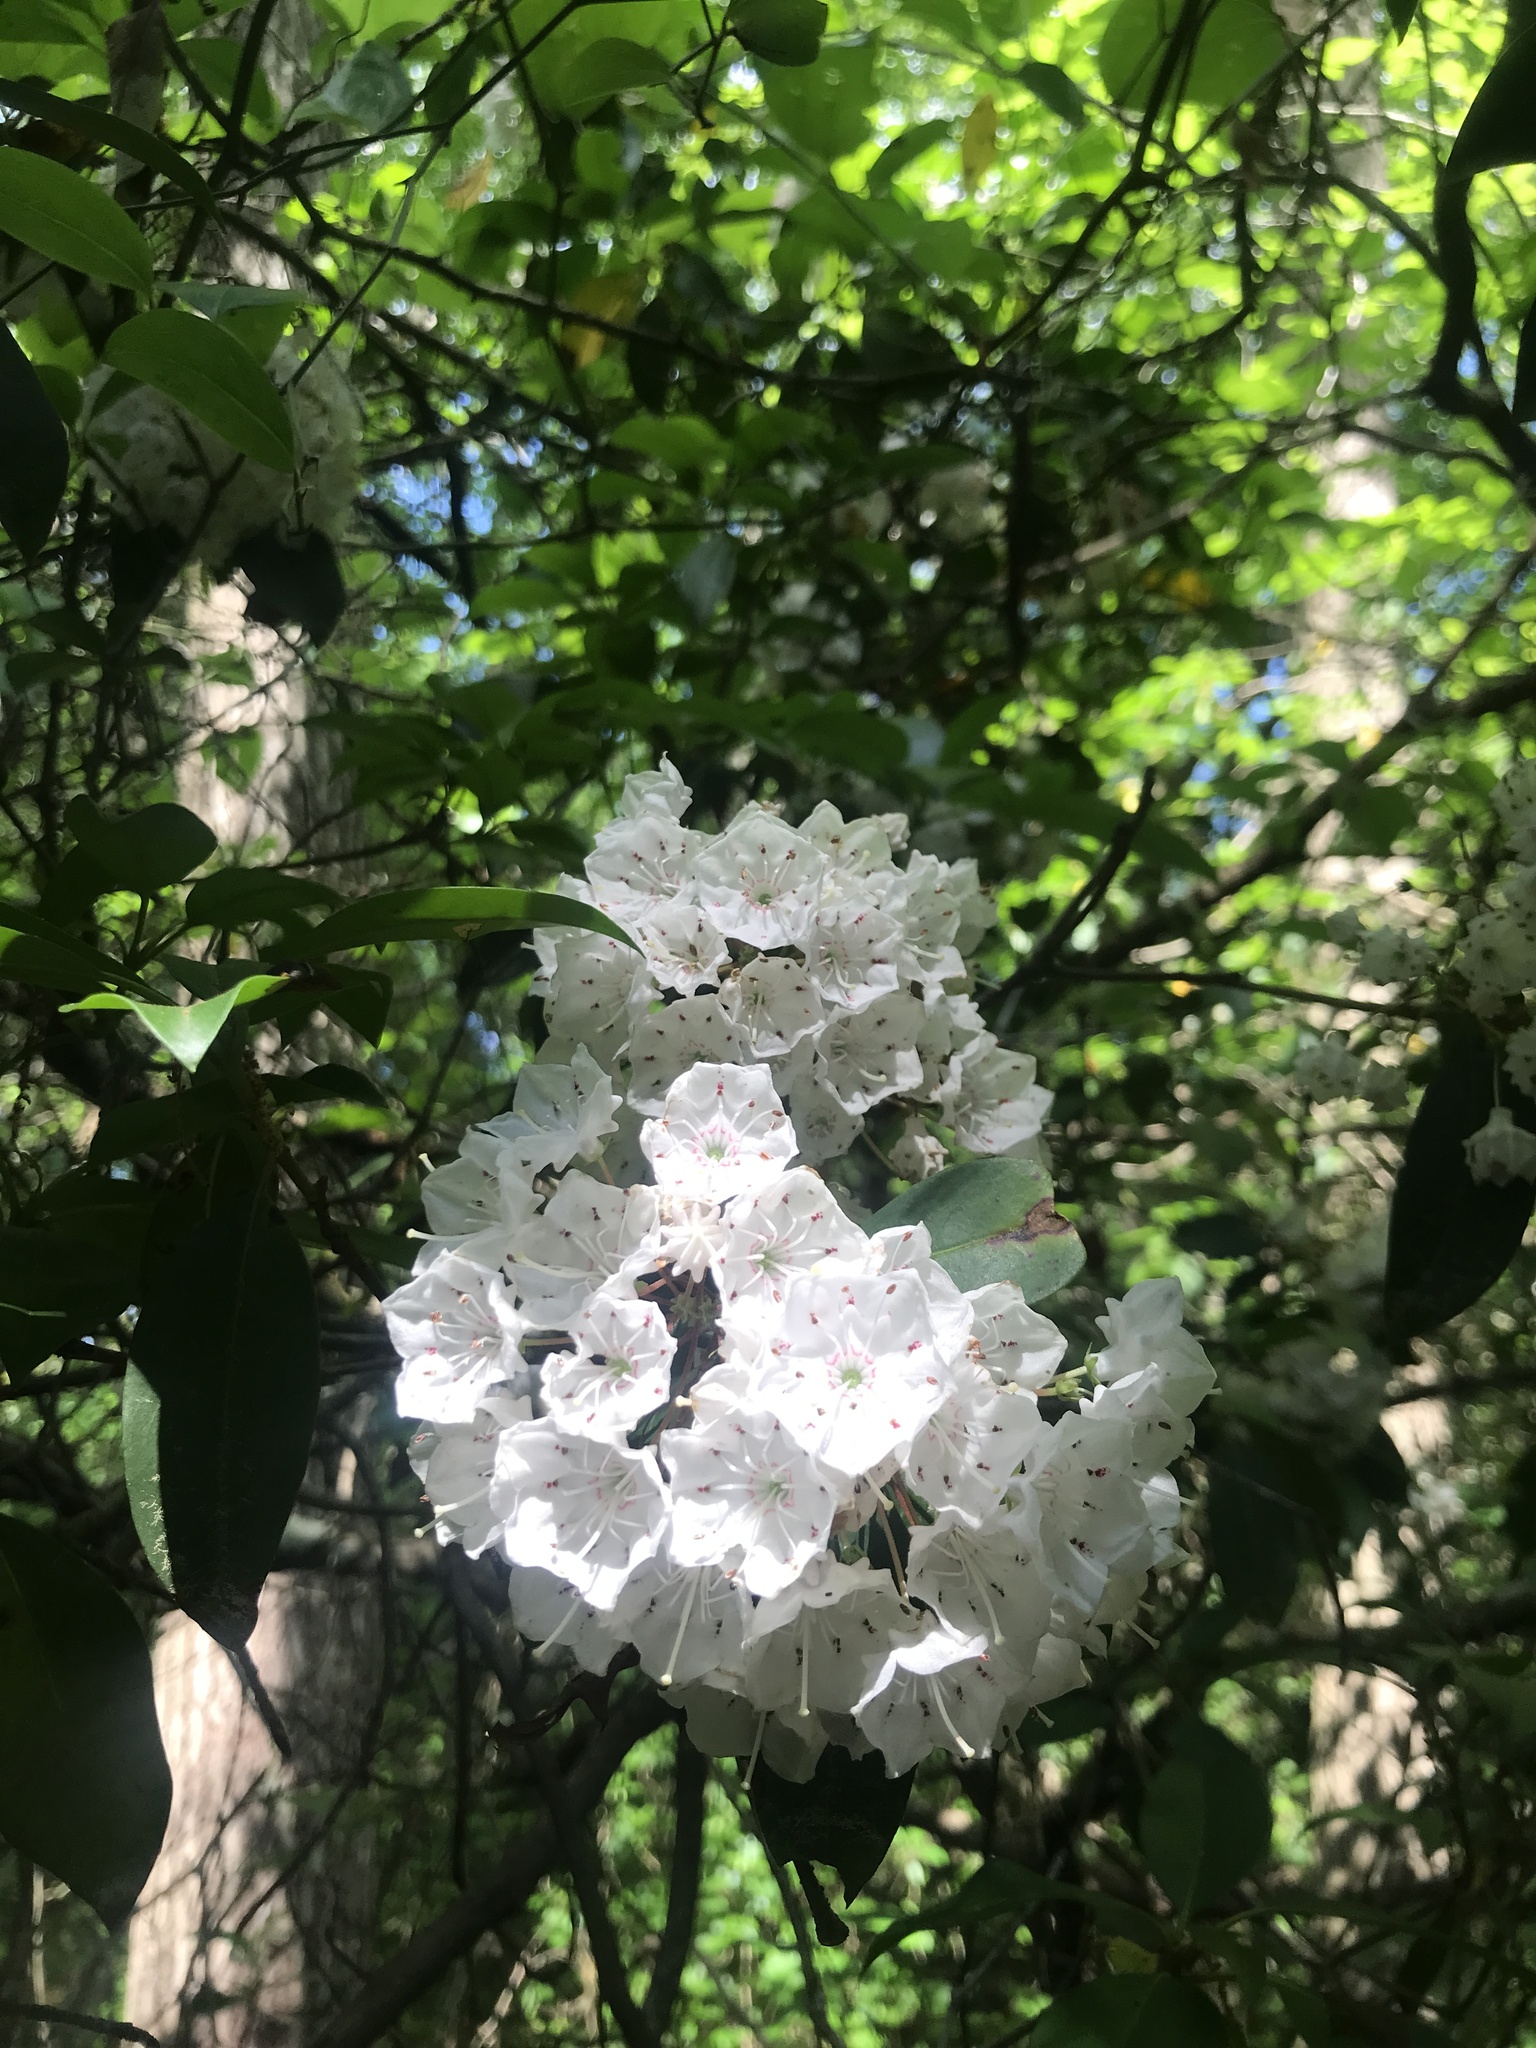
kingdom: Plantae
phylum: Tracheophyta
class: Magnoliopsida
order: Ericales
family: Ericaceae
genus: Kalmia
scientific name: Kalmia latifolia
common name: Mountain-laurel
